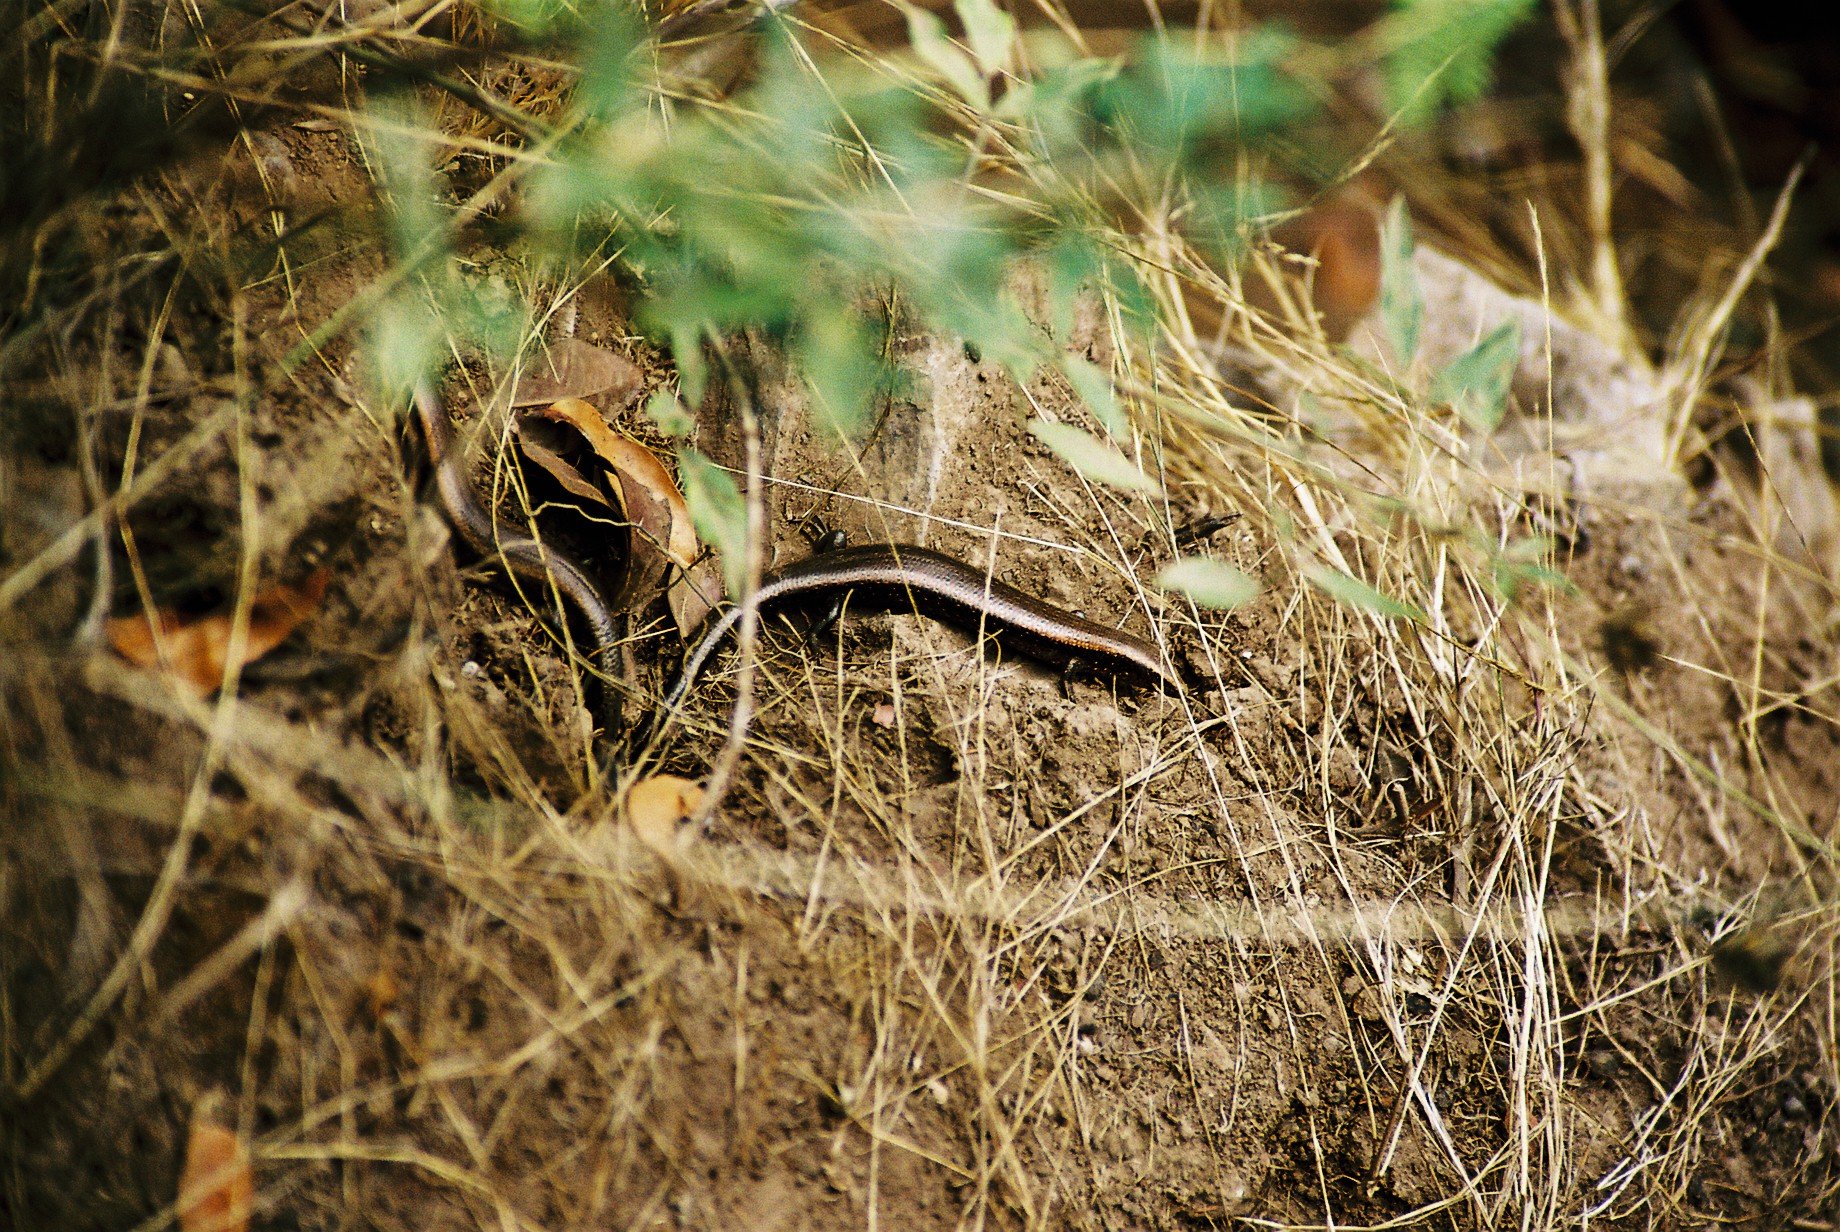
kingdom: Animalia
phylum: Chordata
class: Squamata
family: Scincidae
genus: Chalcides
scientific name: Chalcides coeruleopunctatus
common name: La gomera skink
